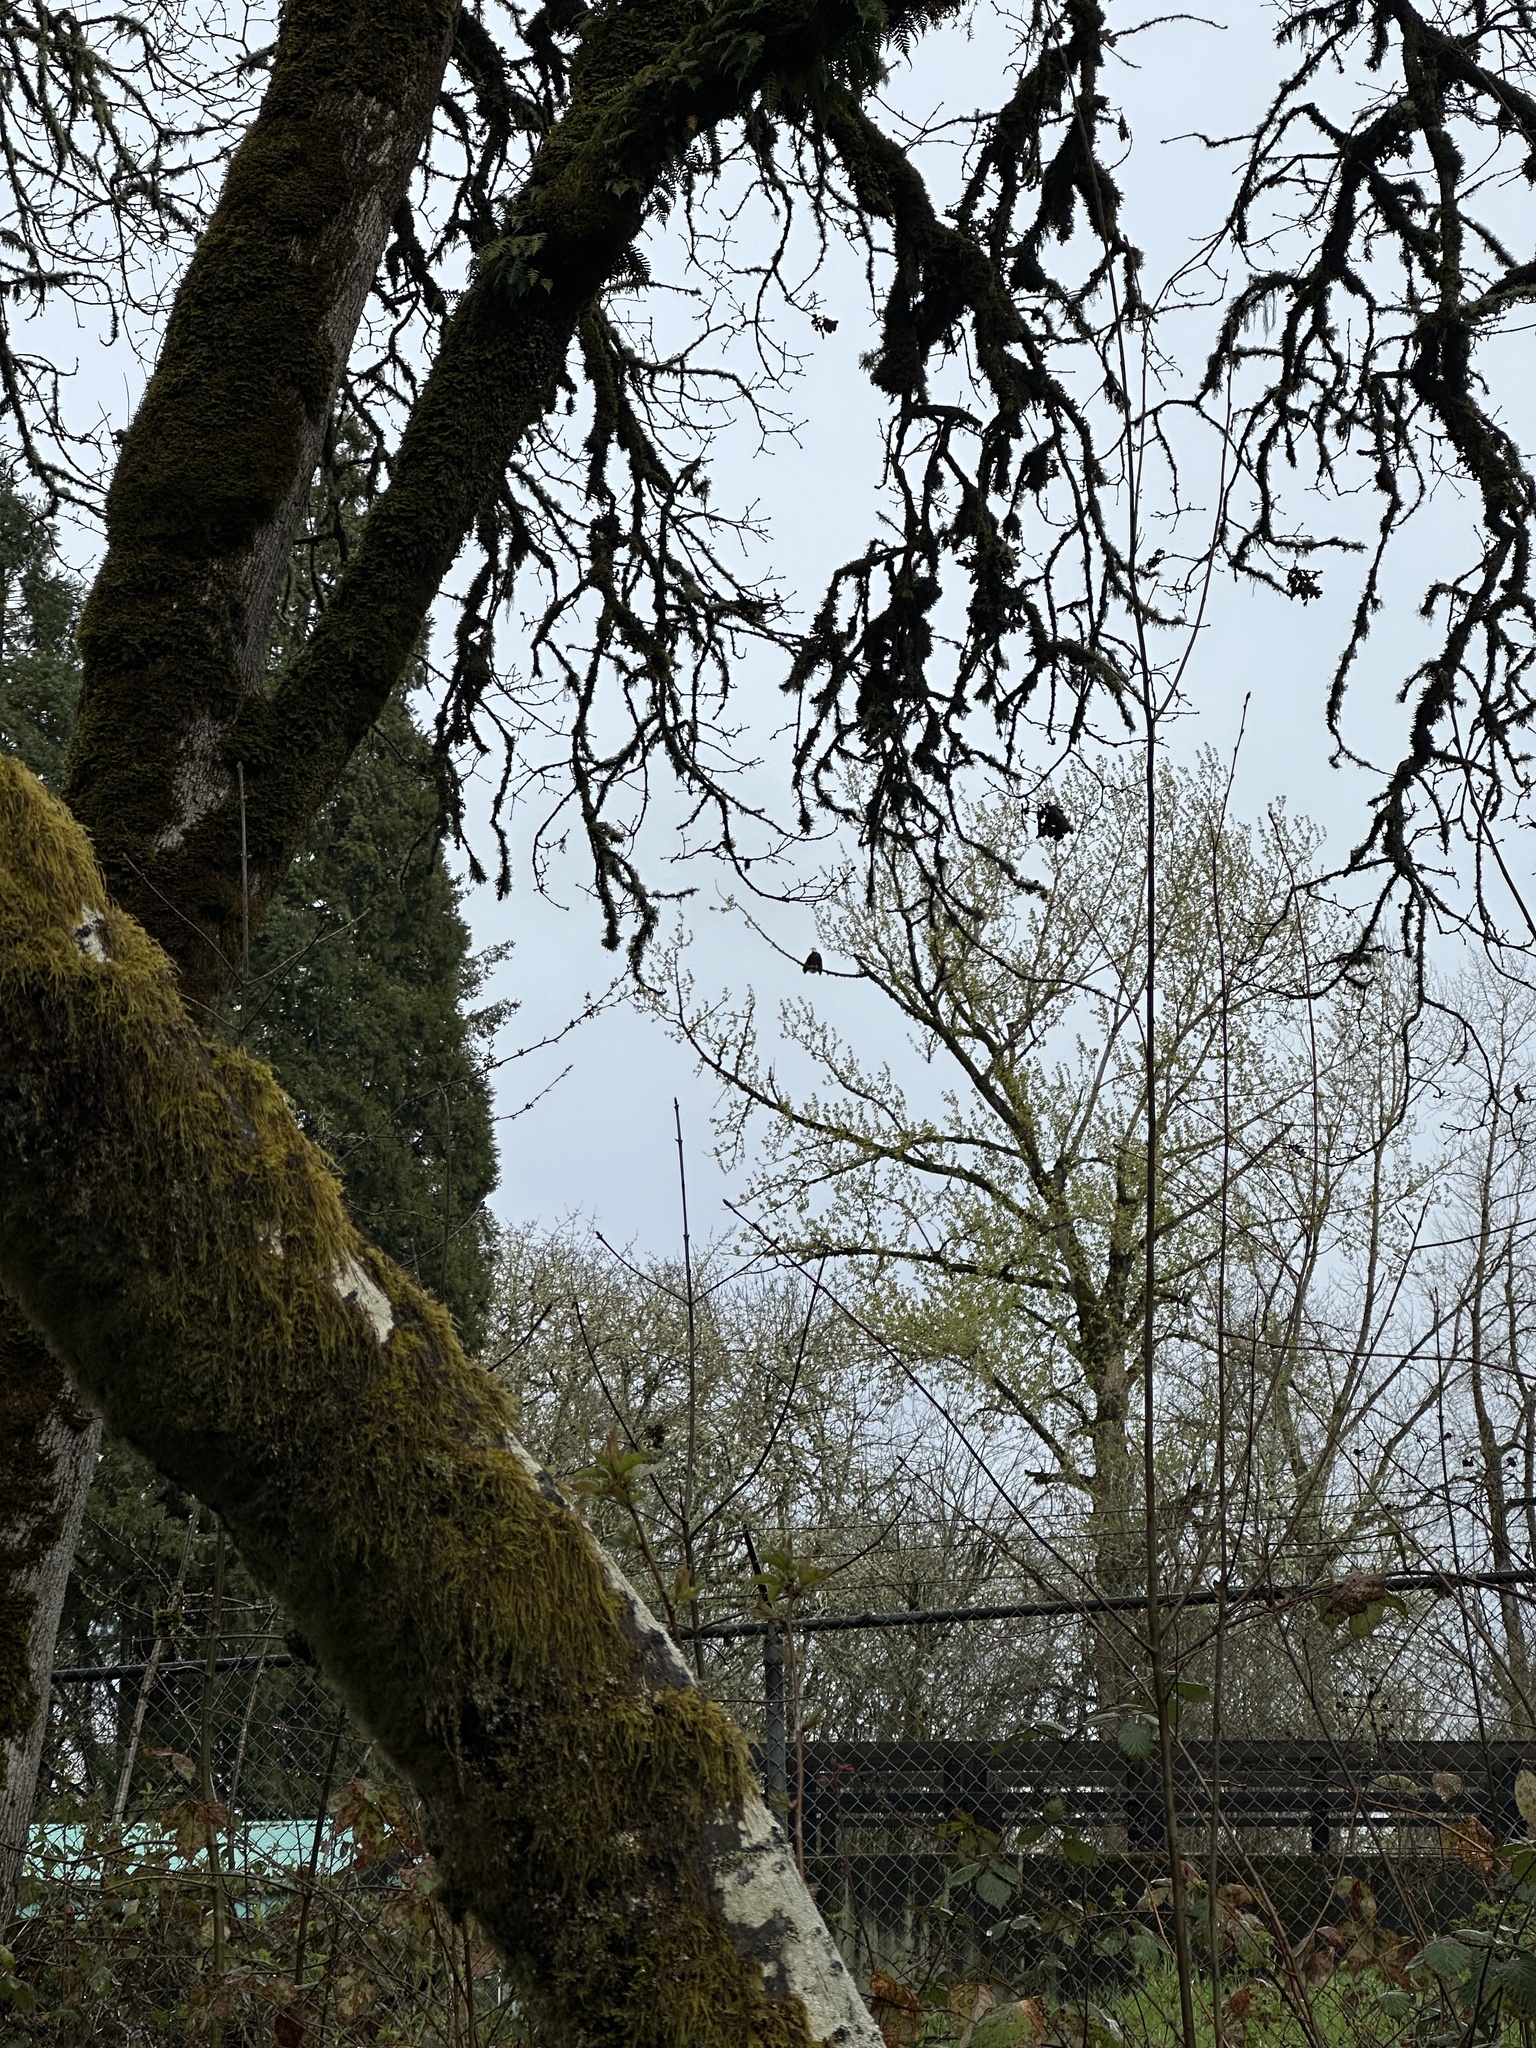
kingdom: Animalia
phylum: Chordata
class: Aves
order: Accipitriformes
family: Accipitridae
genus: Haliaeetus
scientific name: Haliaeetus leucocephalus
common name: Bald eagle
